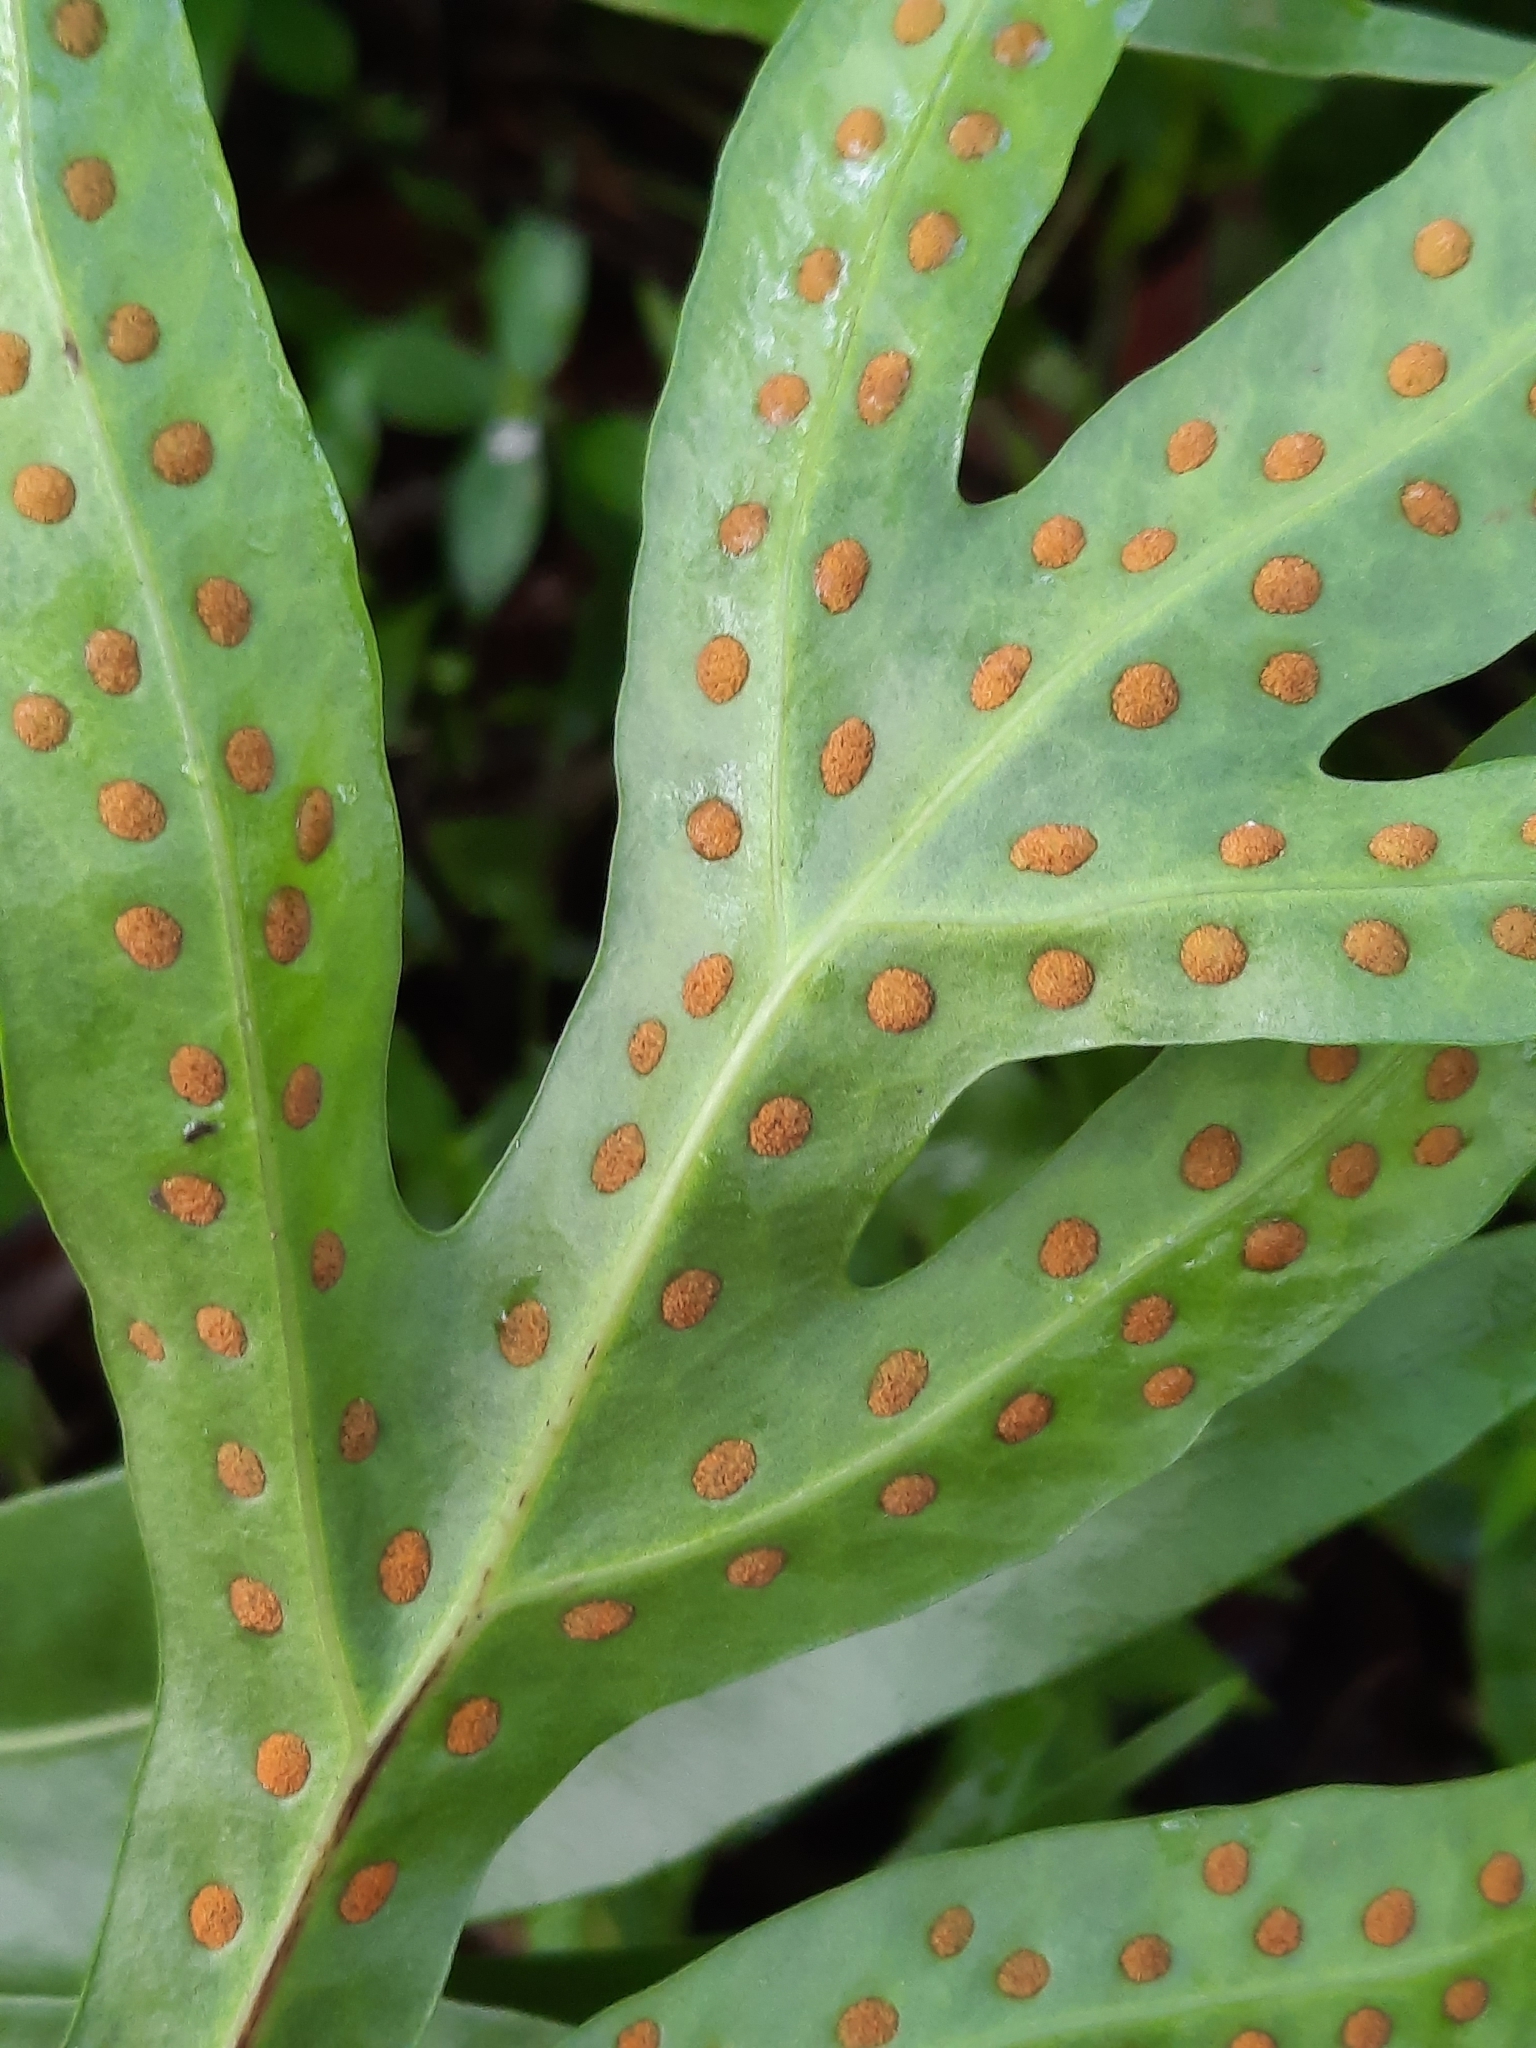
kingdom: Plantae
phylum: Tracheophyta
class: Polypodiopsida
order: Polypodiales
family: Polypodiaceae
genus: Microsorum
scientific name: Microsorum grossum
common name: Musk fern
